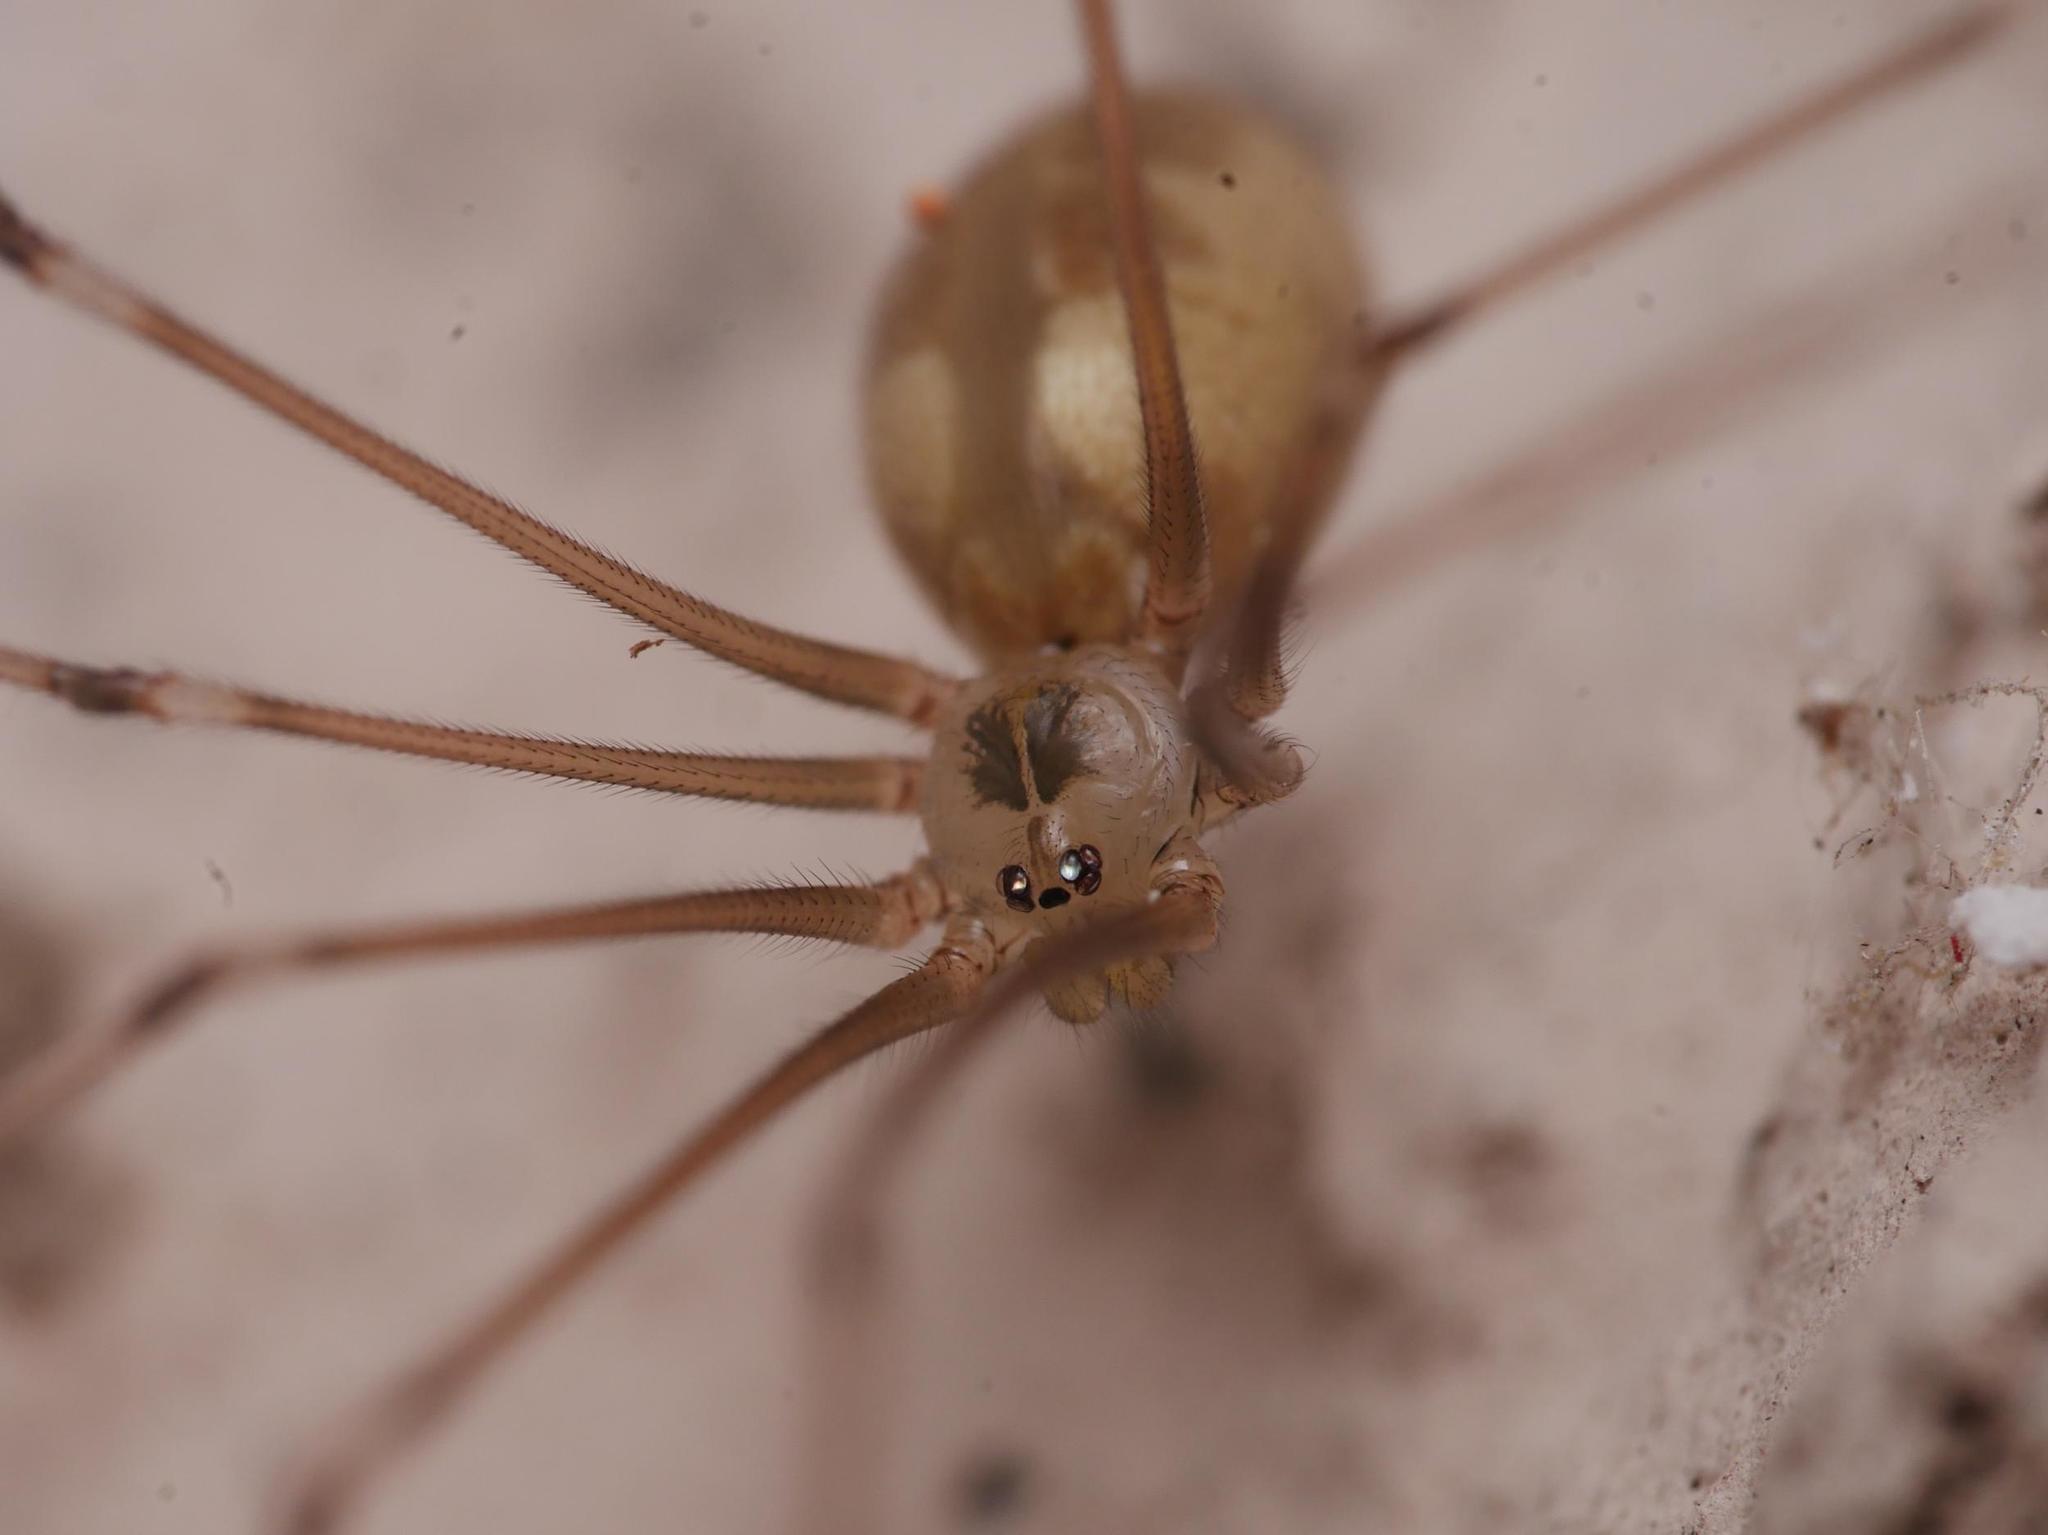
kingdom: Animalia
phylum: Arthropoda
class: Arachnida
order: Araneae
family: Pholcidae
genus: Pholcus
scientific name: Pholcus phalangioides
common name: Longbodied cellar spider
